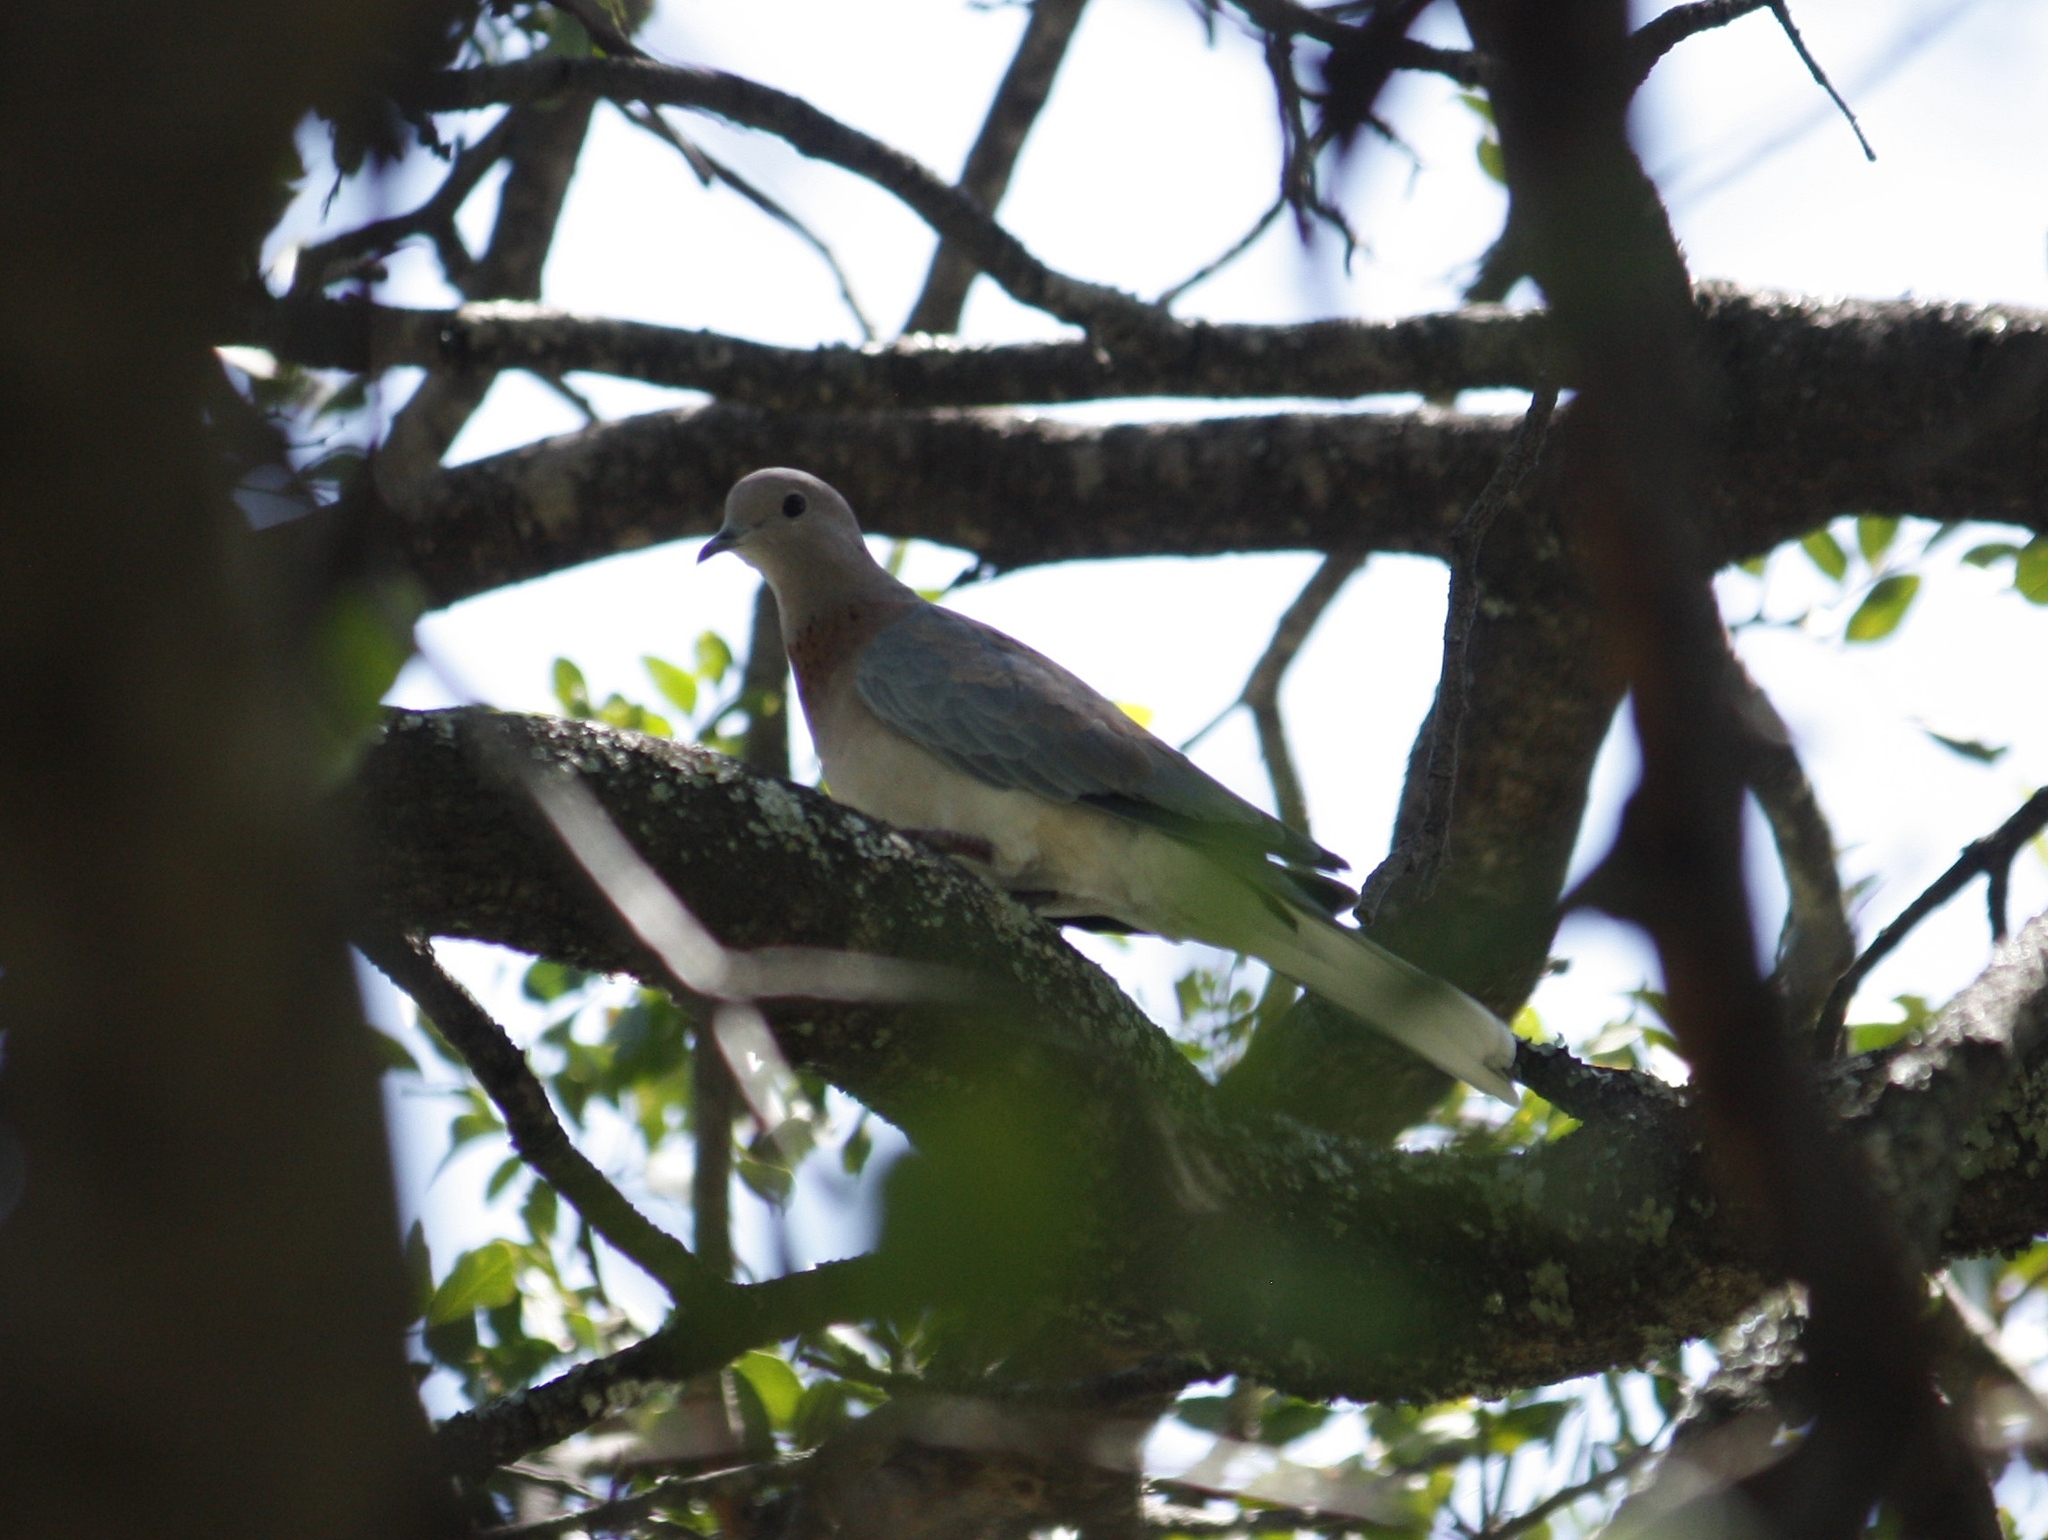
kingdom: Animalia
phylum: Chordata
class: Aves
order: Columbiformes
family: Columbidae
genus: Spilopelia
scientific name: Spilopelia senegalensis
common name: Laughing dove
